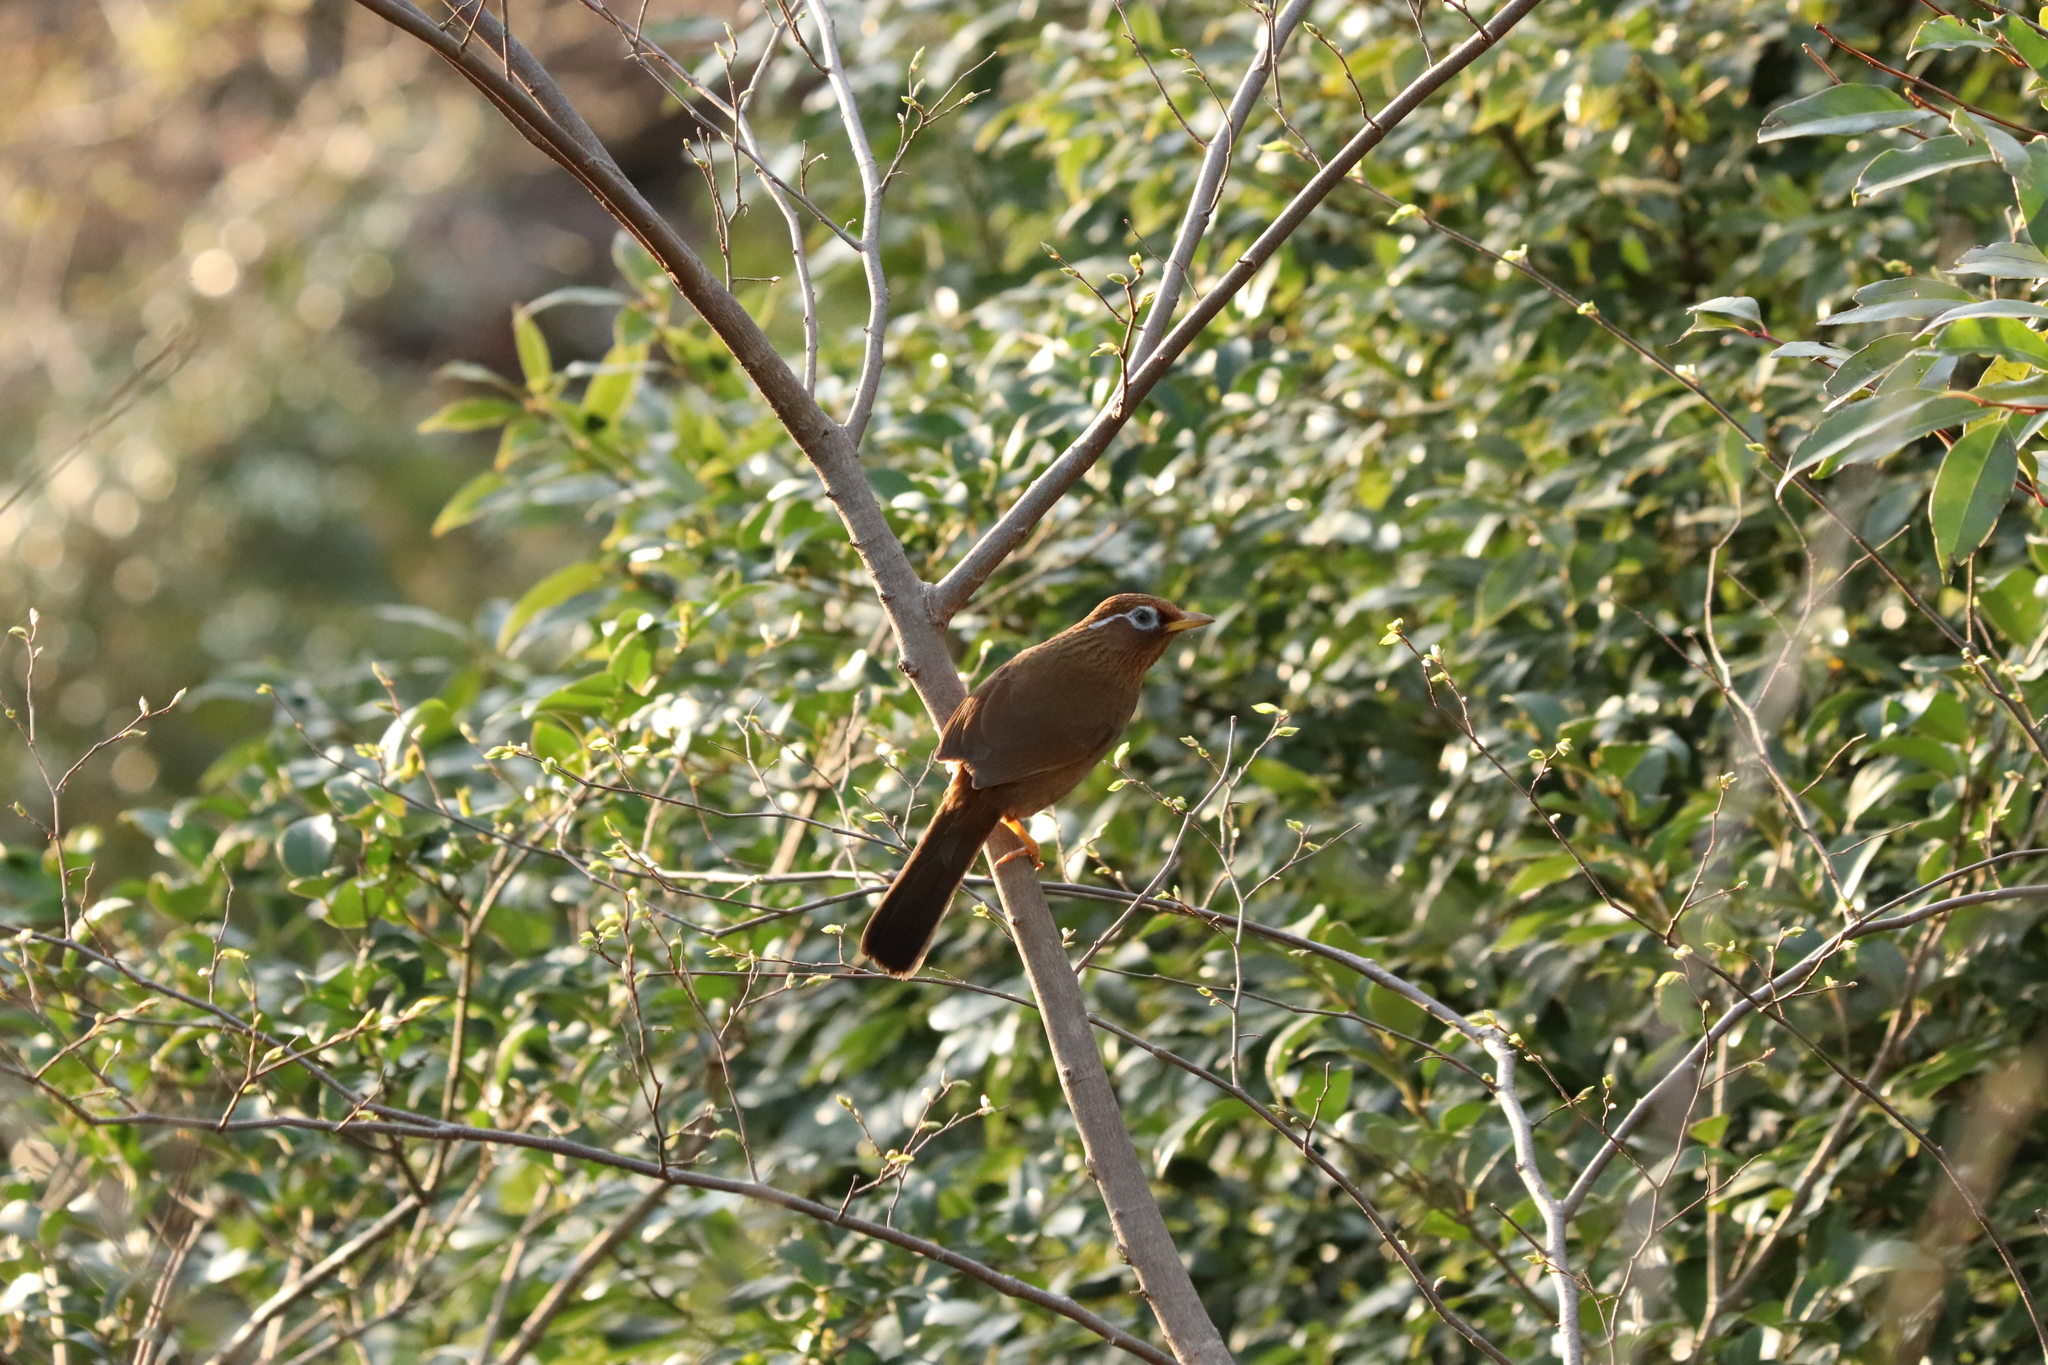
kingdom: Animalia
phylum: Chordata
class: Aves
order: Passeriformes
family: Leiothrichidae
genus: Garrulax
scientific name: Garrulax canorus
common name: Chinese hwamei
